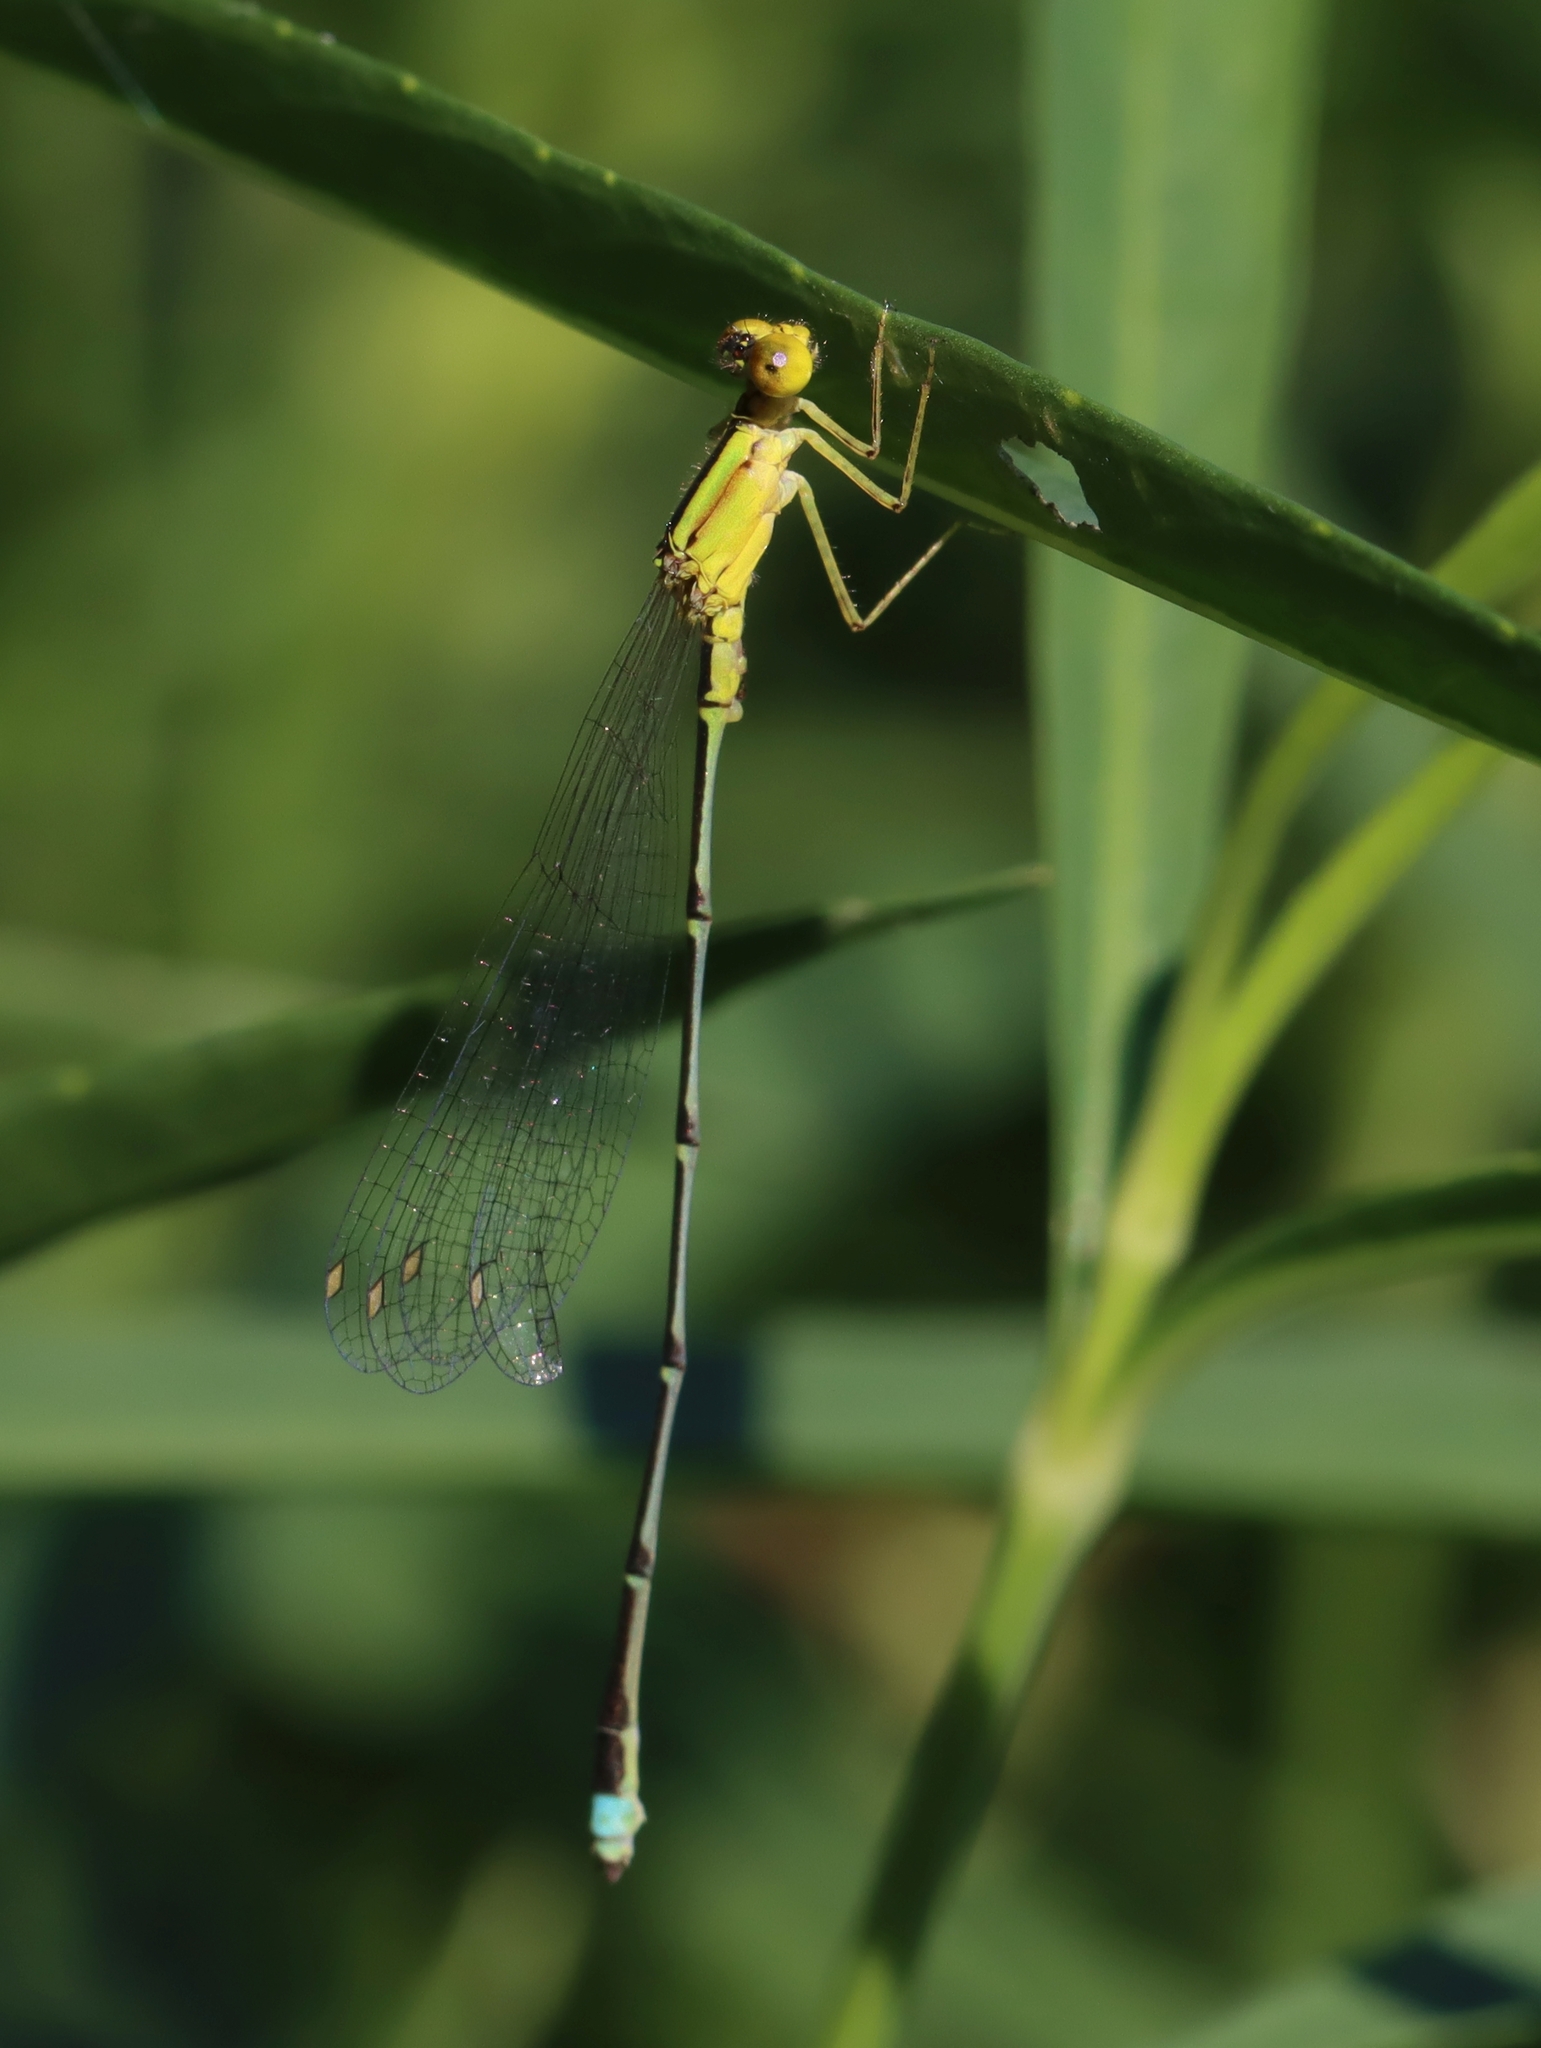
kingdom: Animalia
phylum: Arthropoda
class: Insecta
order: Odonata
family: Coenagrionidae
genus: Enallagma
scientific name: Enallagma vesperum
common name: Vesper bluet
